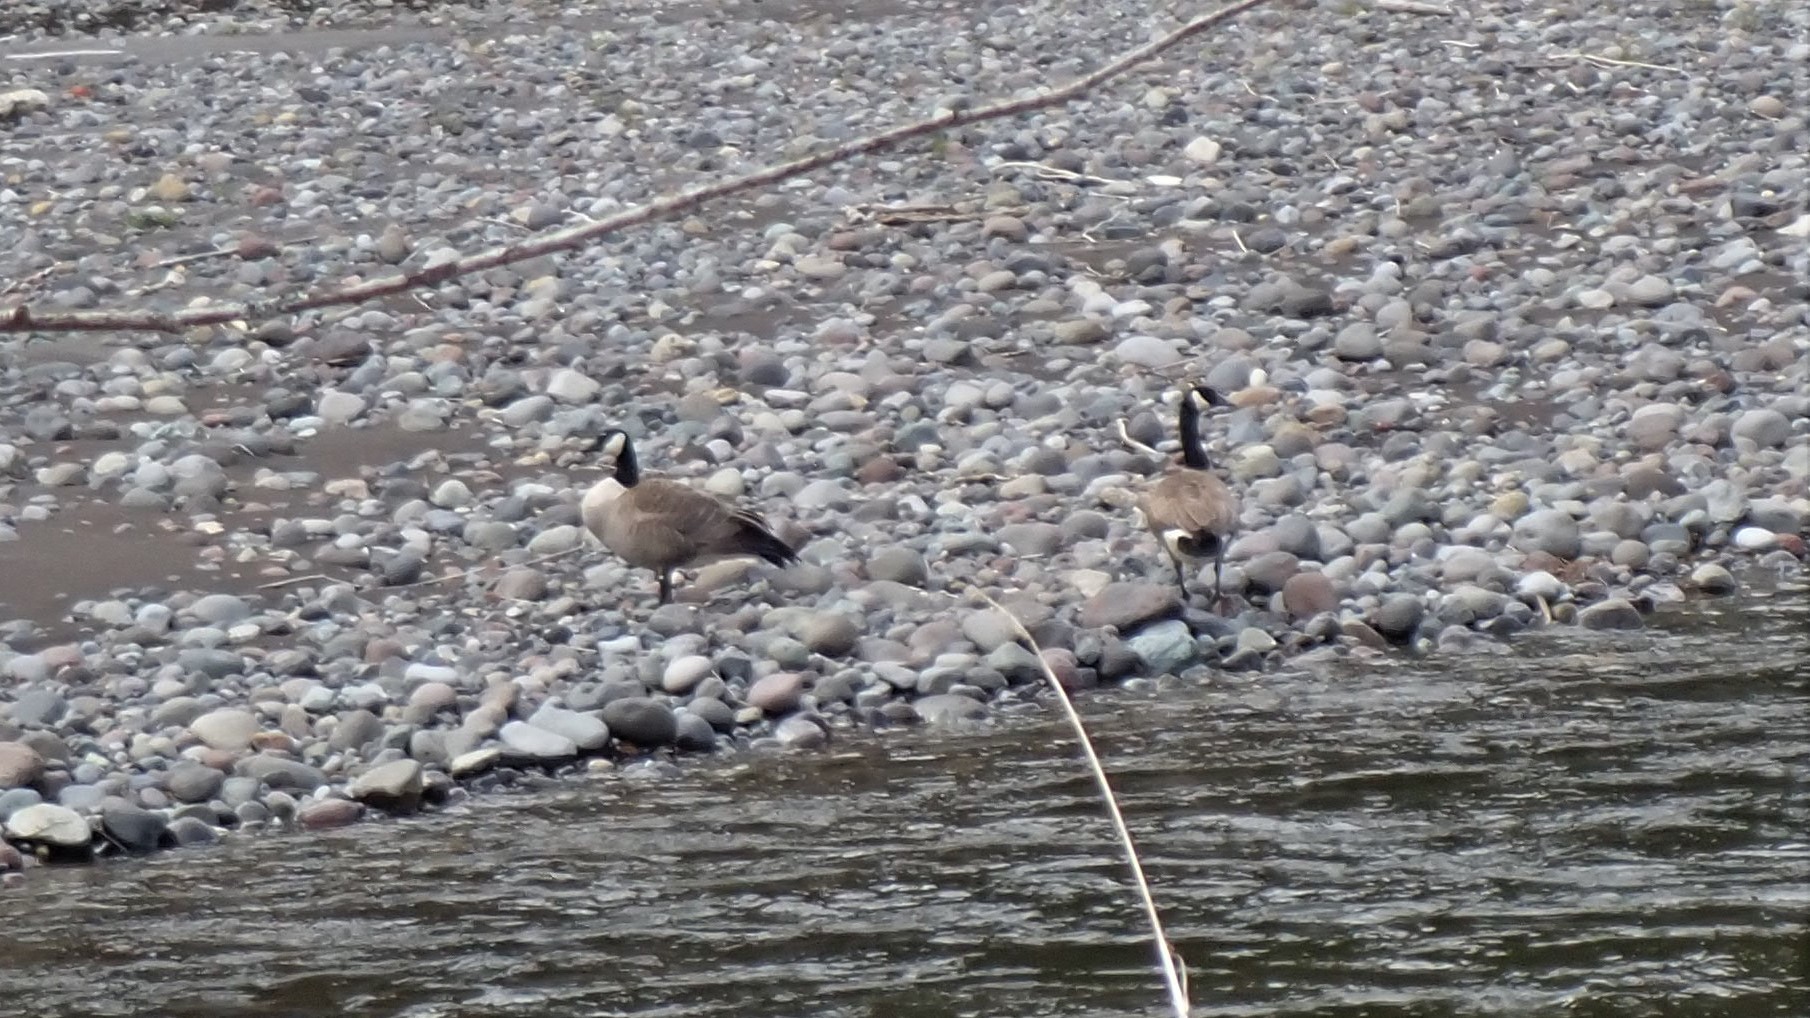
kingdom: Animalia
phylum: Chordata
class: Aves
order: Anseriformes
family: Anatidae
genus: Branta
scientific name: Branta canadensis
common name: Canada goose
